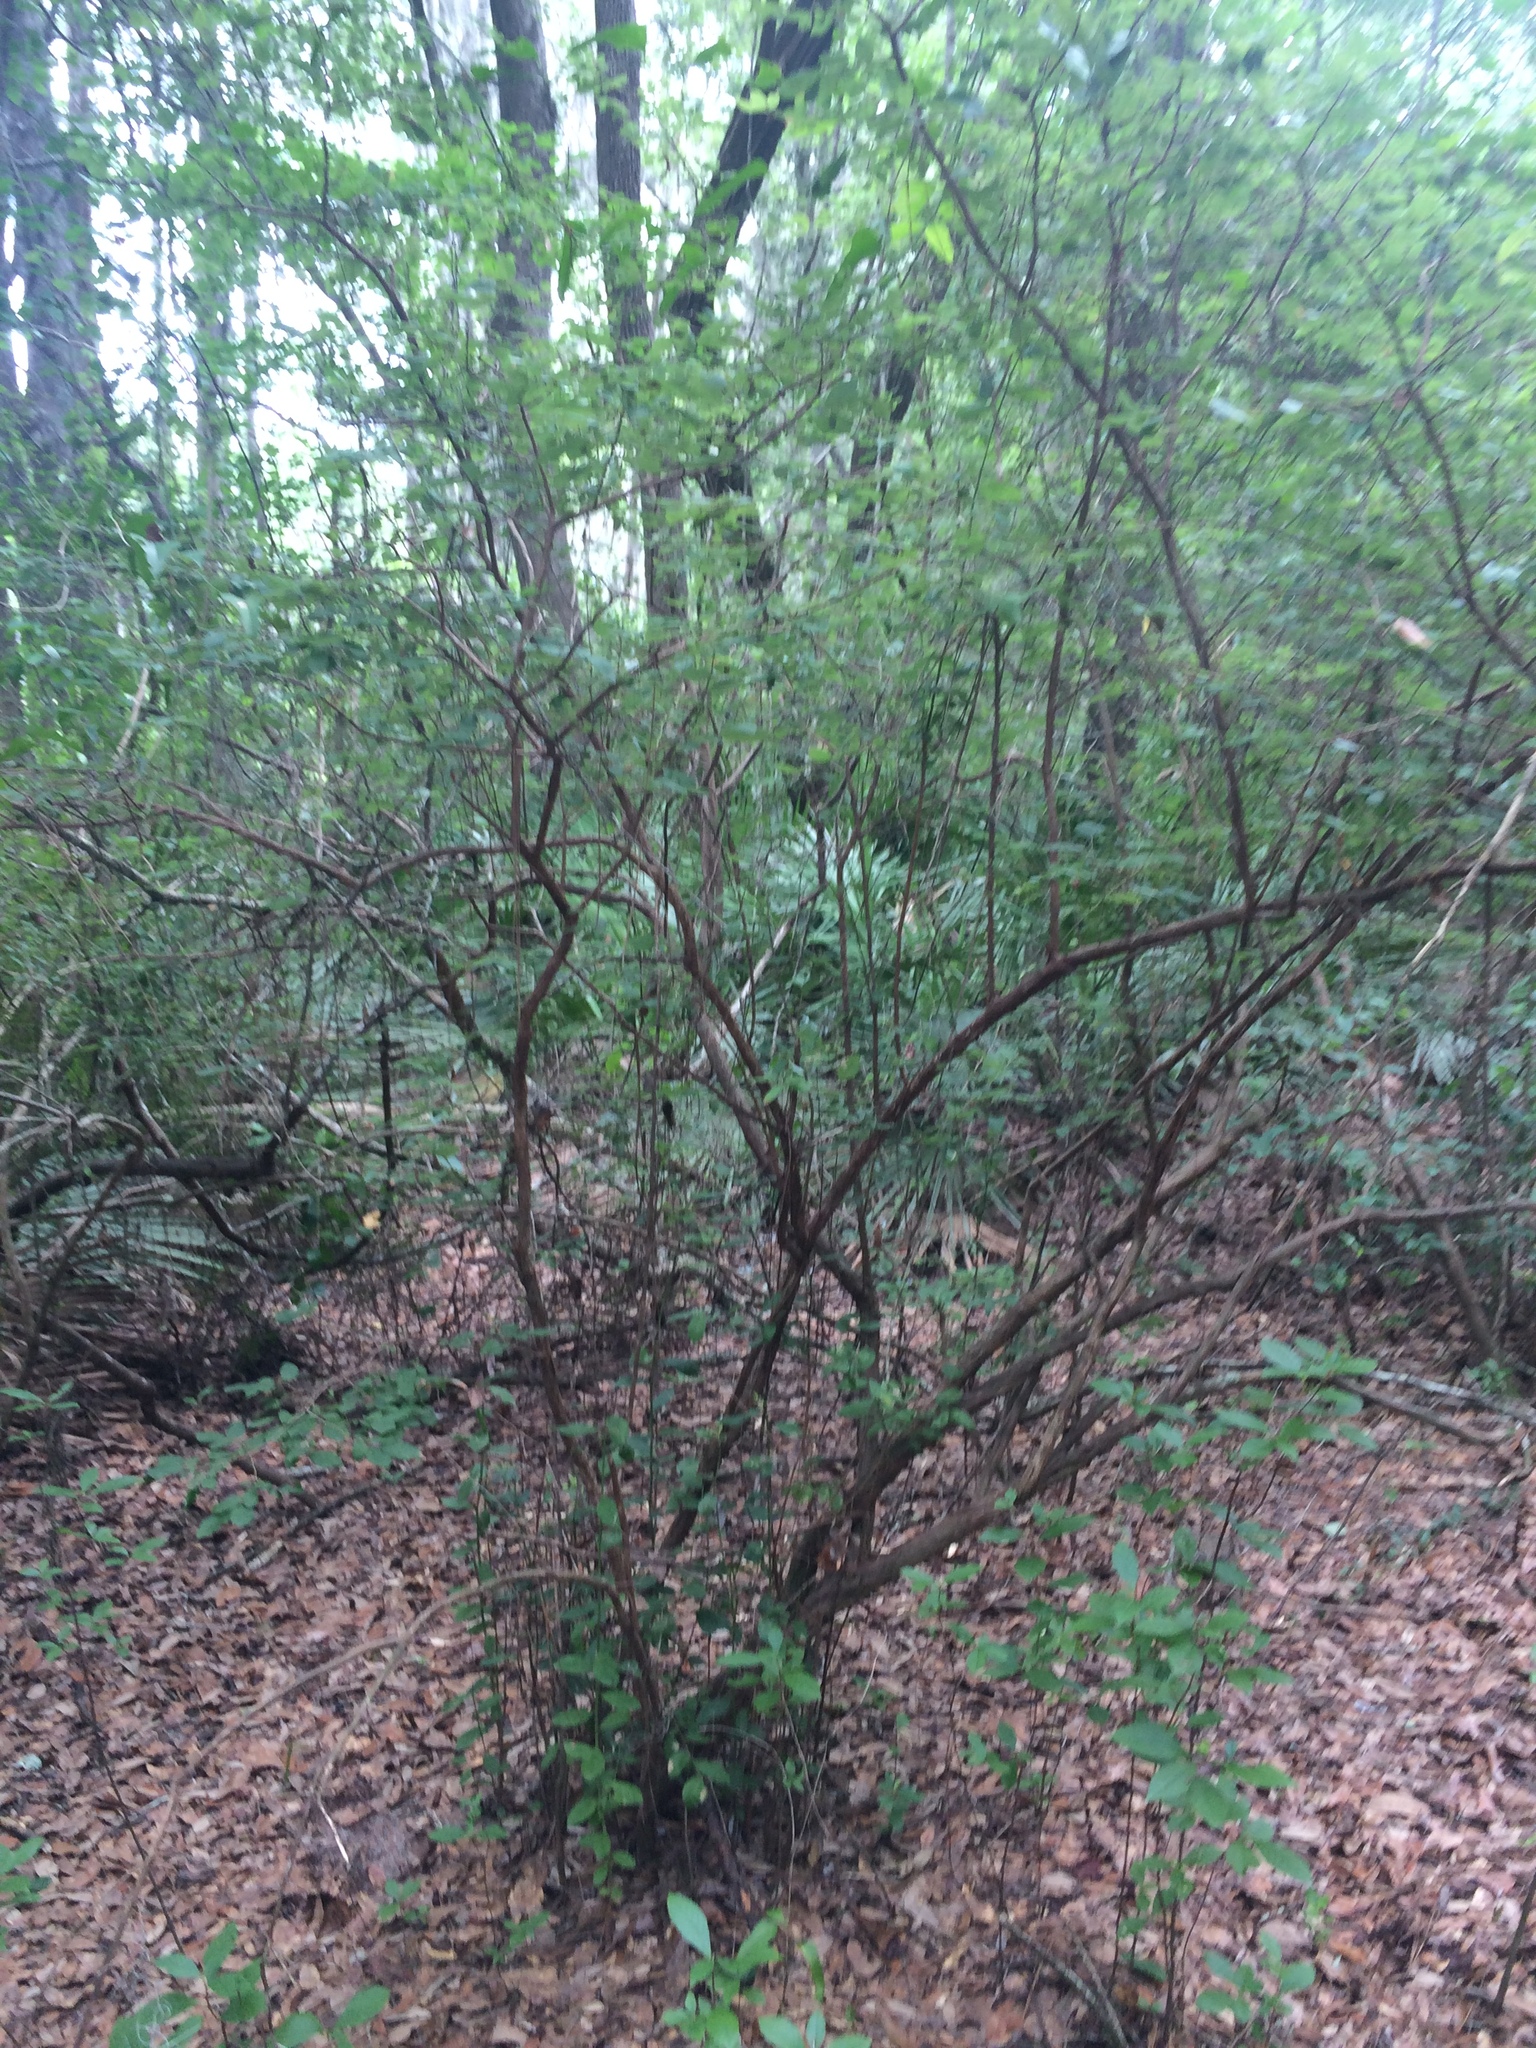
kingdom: Plantae
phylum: Tracheophyta
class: Magnoliopsida
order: Ericales
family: Ericaceae
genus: Vaccinium
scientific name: Vaccinium stamineum
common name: Deerberry
